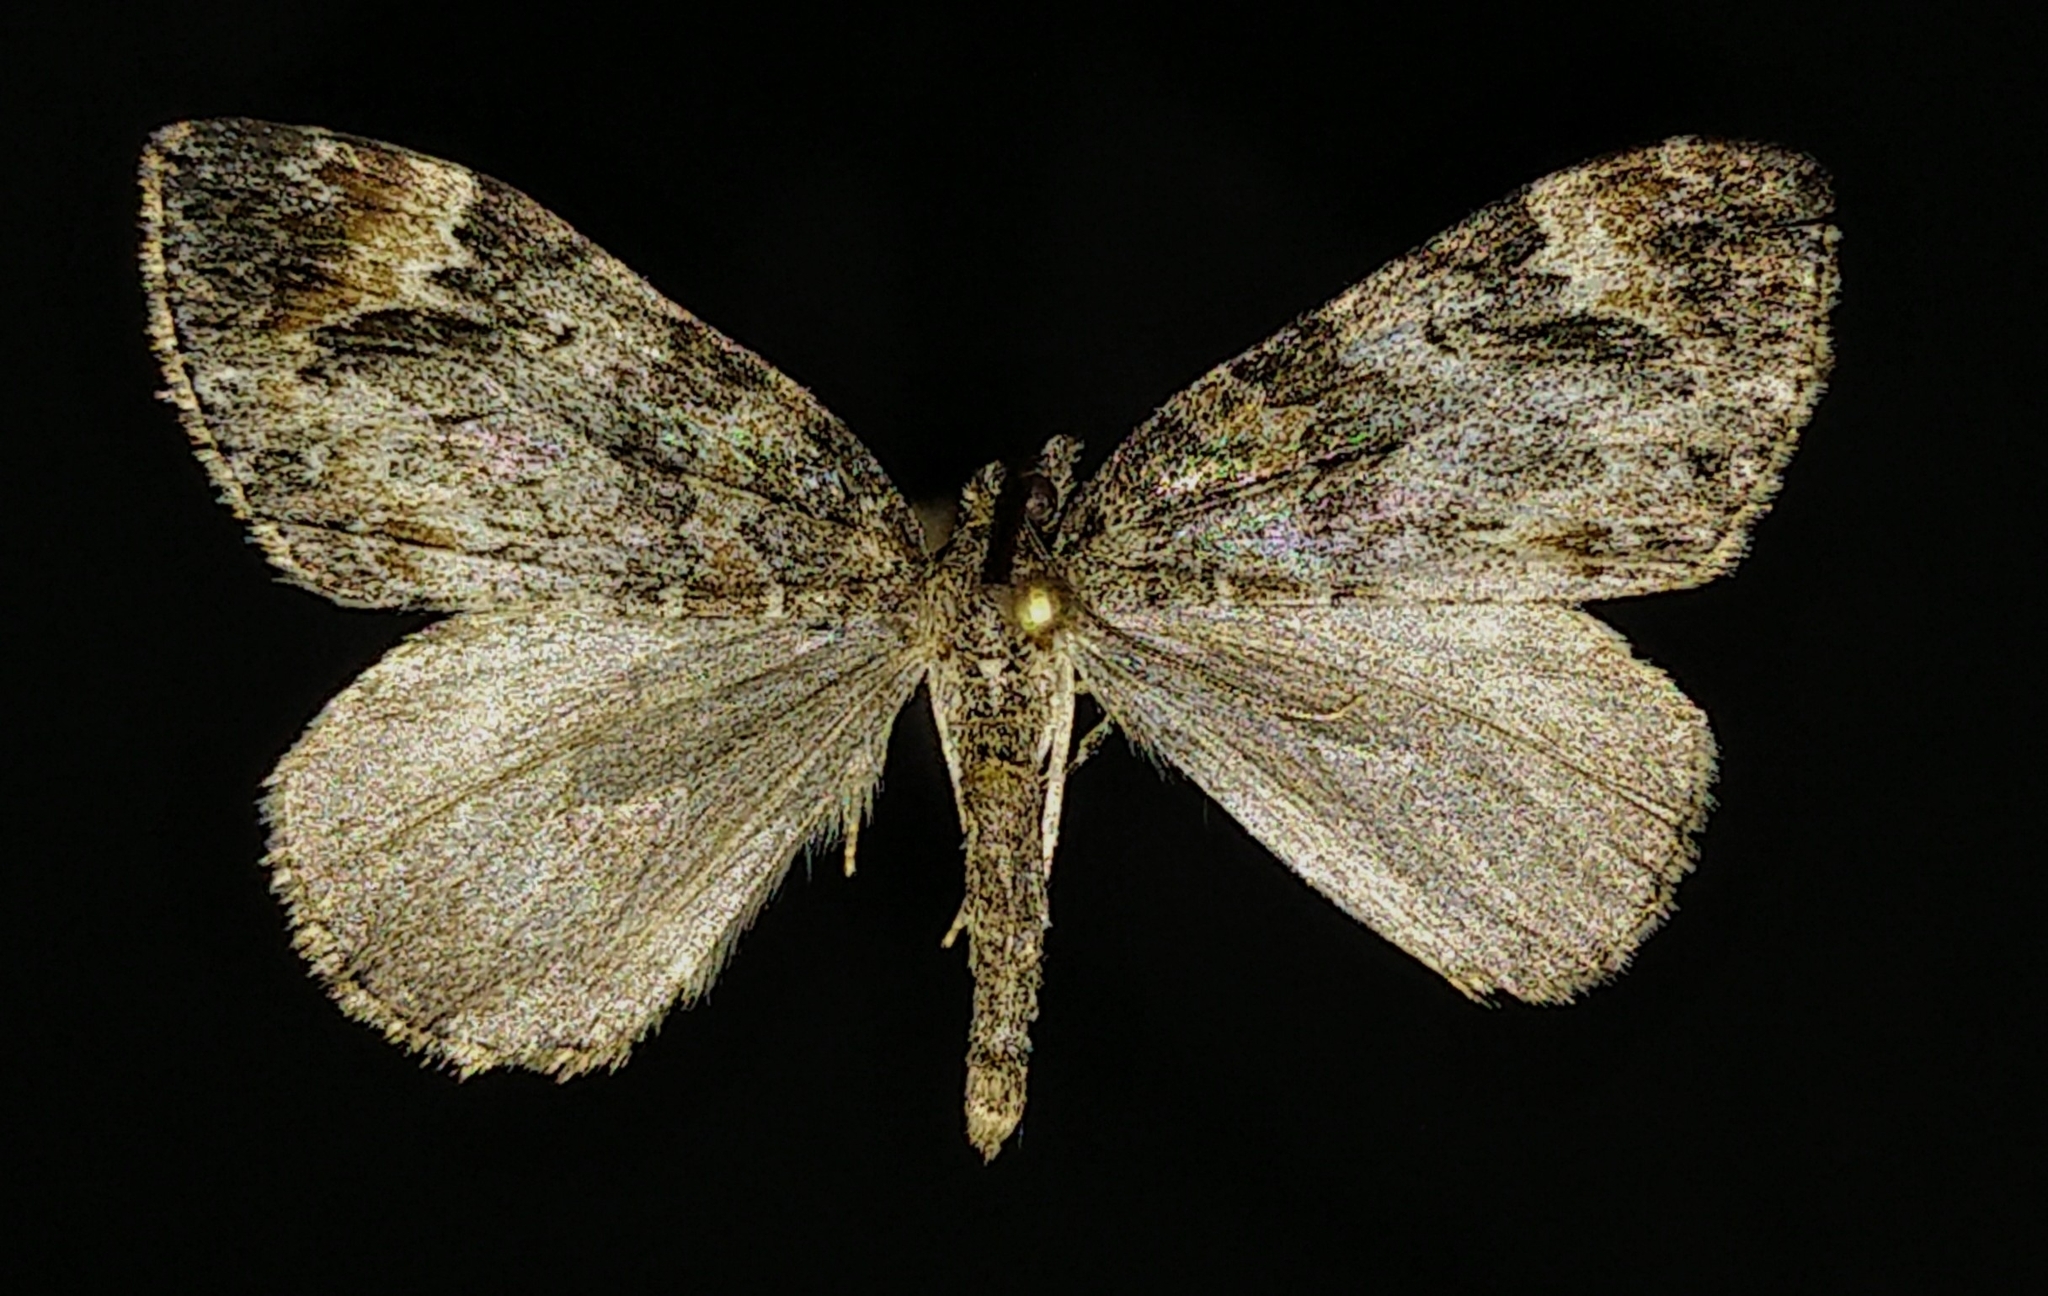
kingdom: Animalia
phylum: Arthropoda
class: Insecta
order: Lepidoptera
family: Geometridae
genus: Dysstroma
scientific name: Dysstroma citrata
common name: Dark marbled carpet
